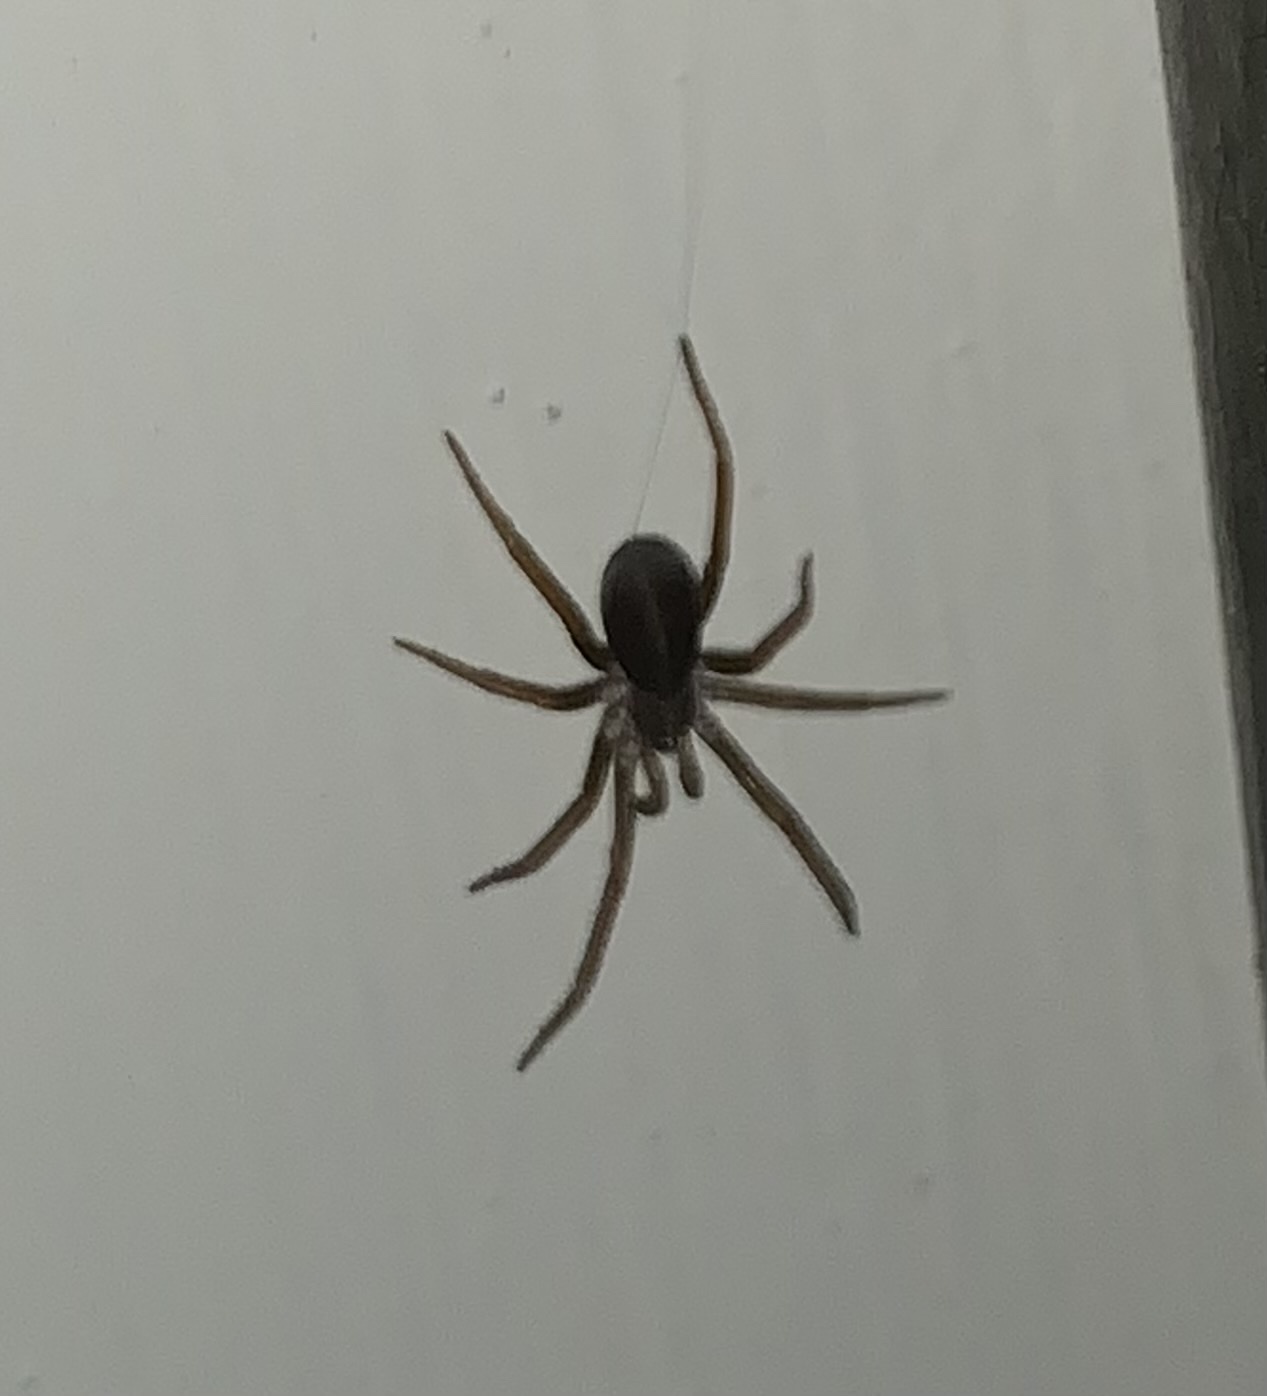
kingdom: Animalia
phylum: Arthropoda
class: Arachnida
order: Araneae
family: Filistatidae
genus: Kukulcania
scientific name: Kukulcania hibernalis
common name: Crevice weaver
